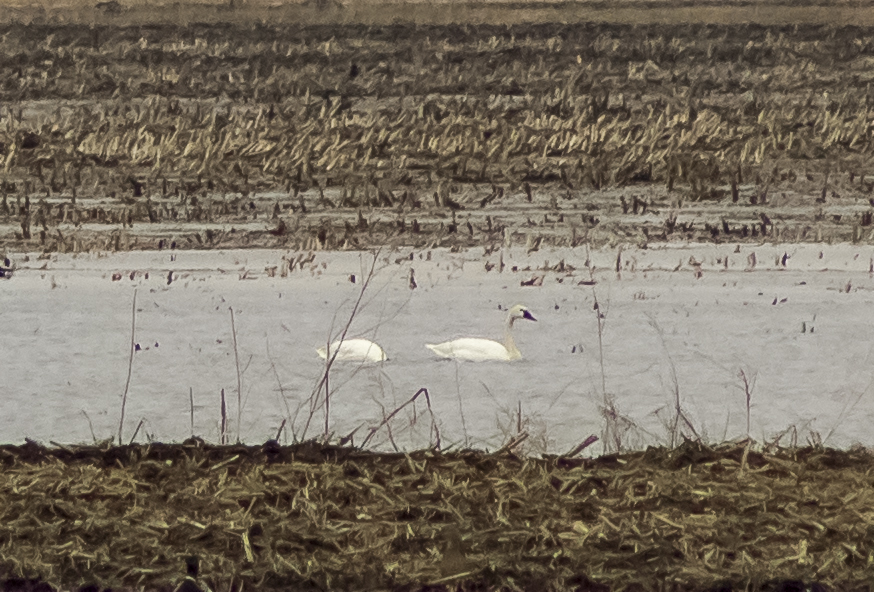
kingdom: Animalia
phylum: Chordata
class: Aves
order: Anseriformes
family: Anatidae
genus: Cygnus
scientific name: Cygnus columbianus
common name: Tundra swan
